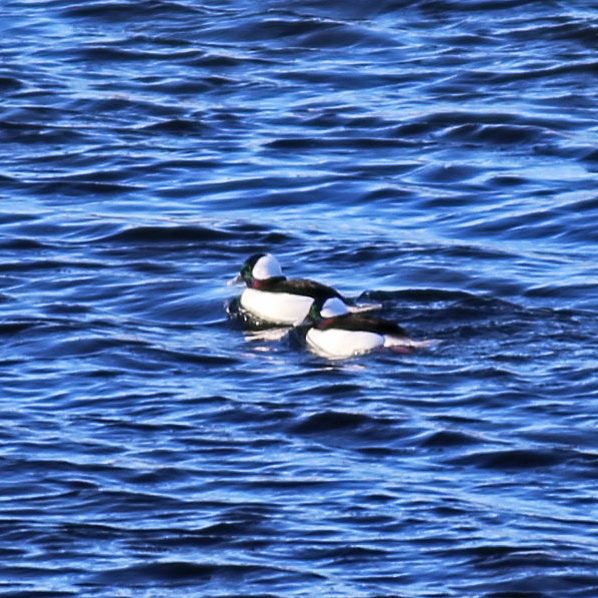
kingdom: Animalia
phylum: Chordata
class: Aves
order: Anseriformes
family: Anatidae
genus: Bucephala
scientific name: Bucephala albeola
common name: Bufflehead
